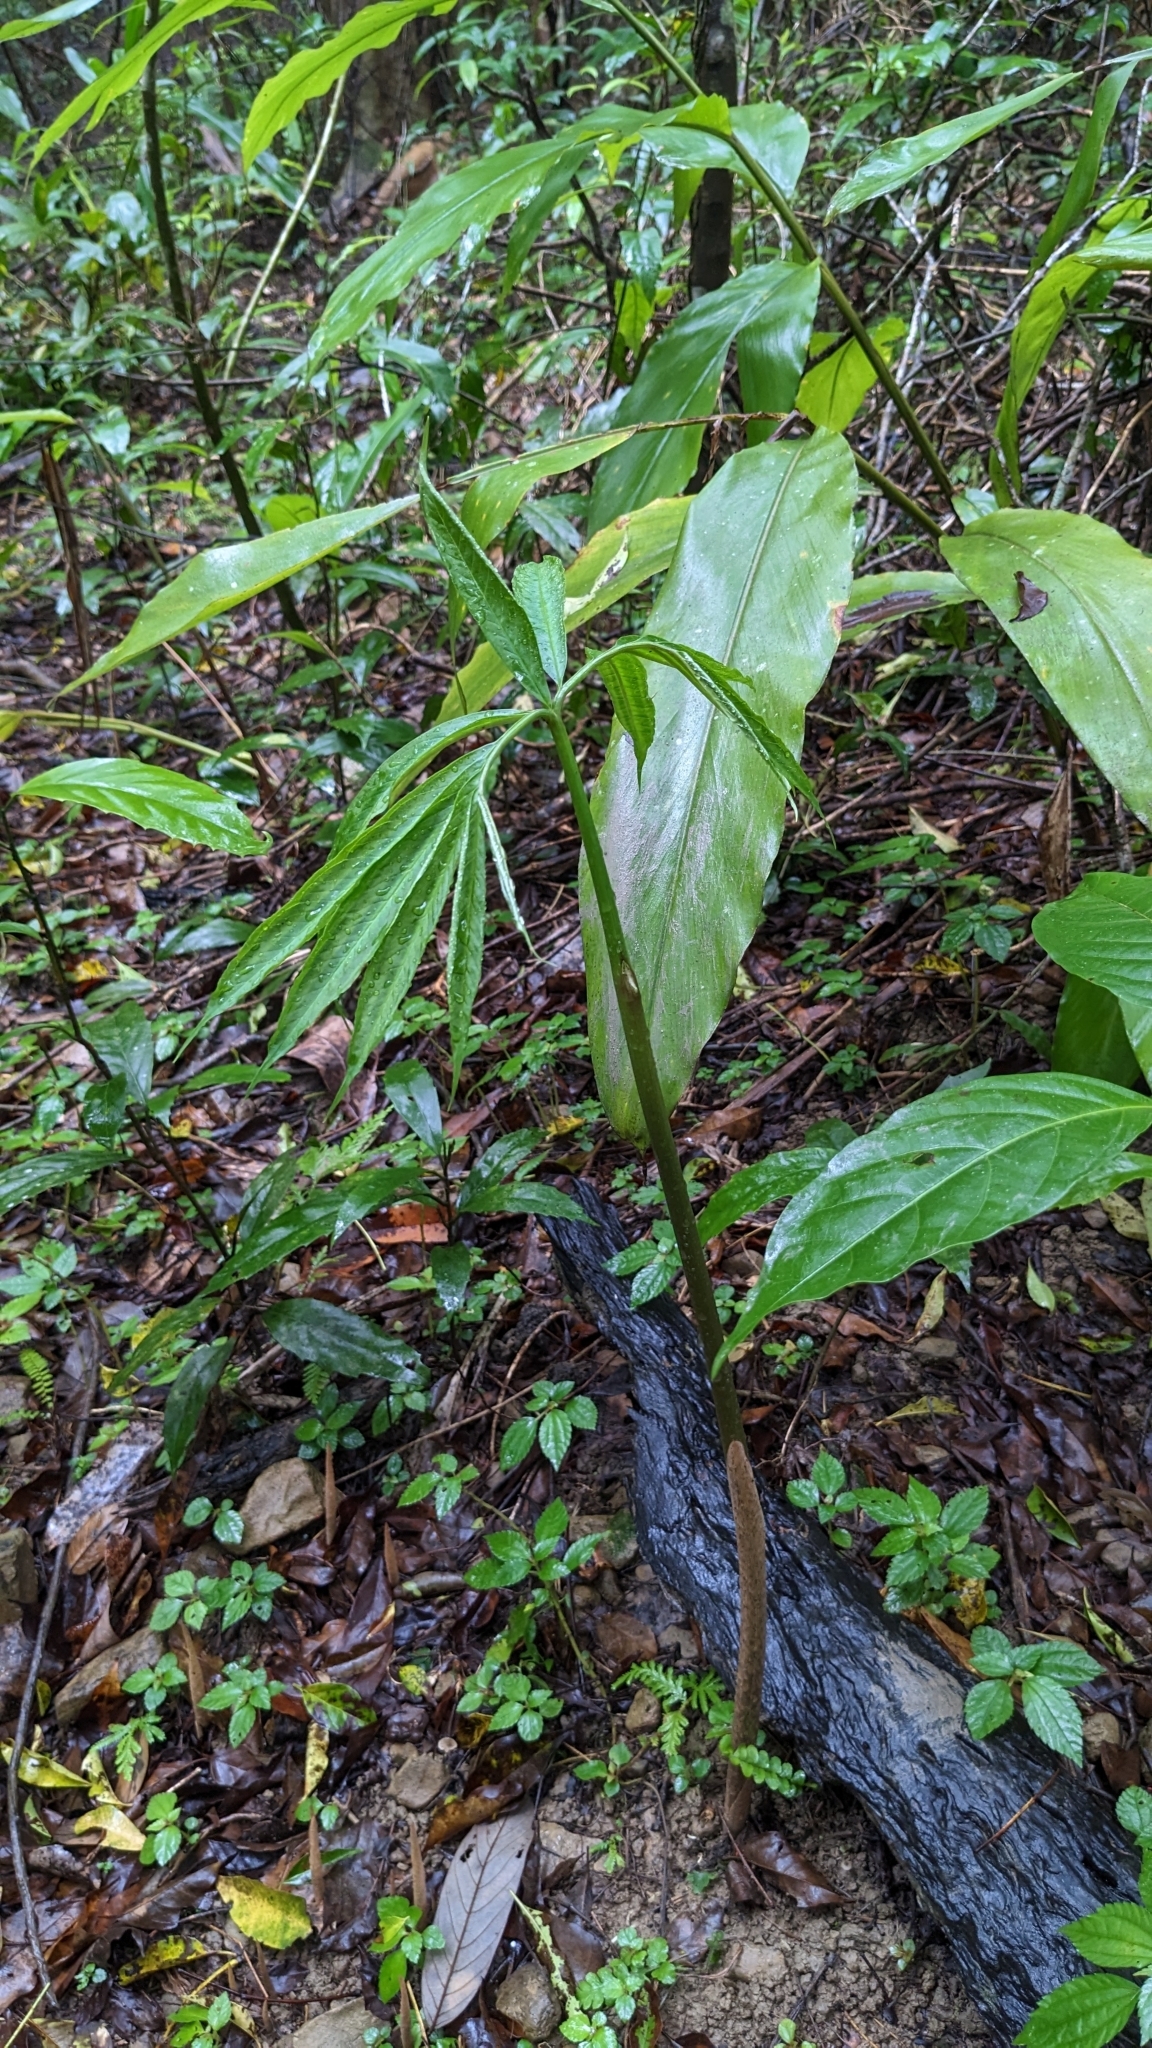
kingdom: Plantae
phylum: Tracheophyta
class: Liliopsida
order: Alismatales
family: Araceae
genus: Arisaema
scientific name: Arisaema heterophyllum
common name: Dancing crane cobra lily
